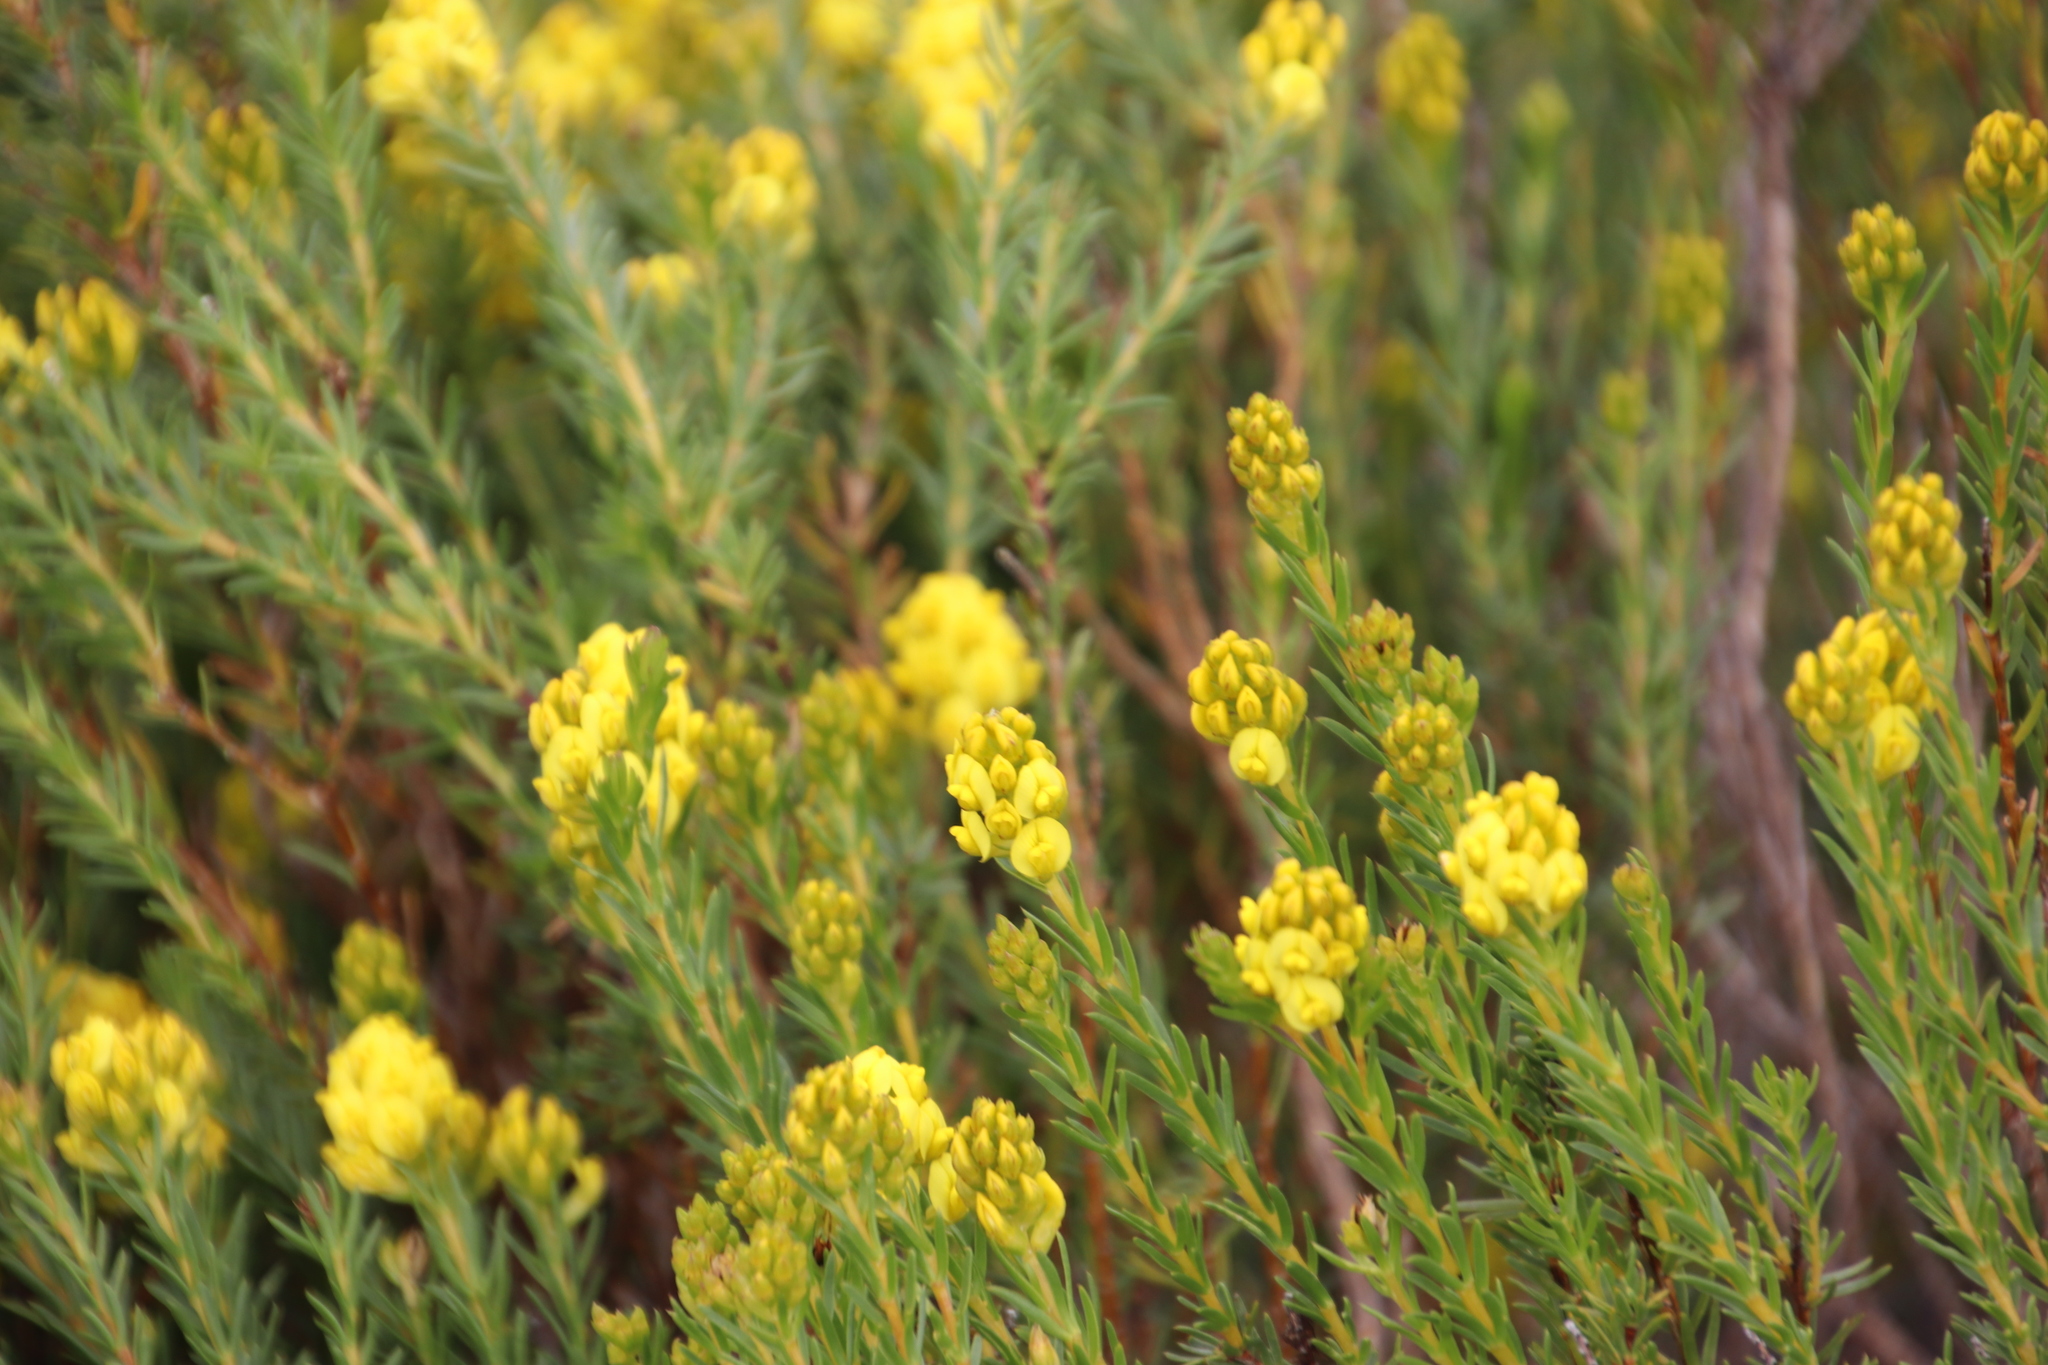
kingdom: Plantae
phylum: Tracheophyta
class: Magnoliopsida
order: Fabales
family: Fabaceae
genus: Aspalathus
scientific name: Aspalathus callosa
